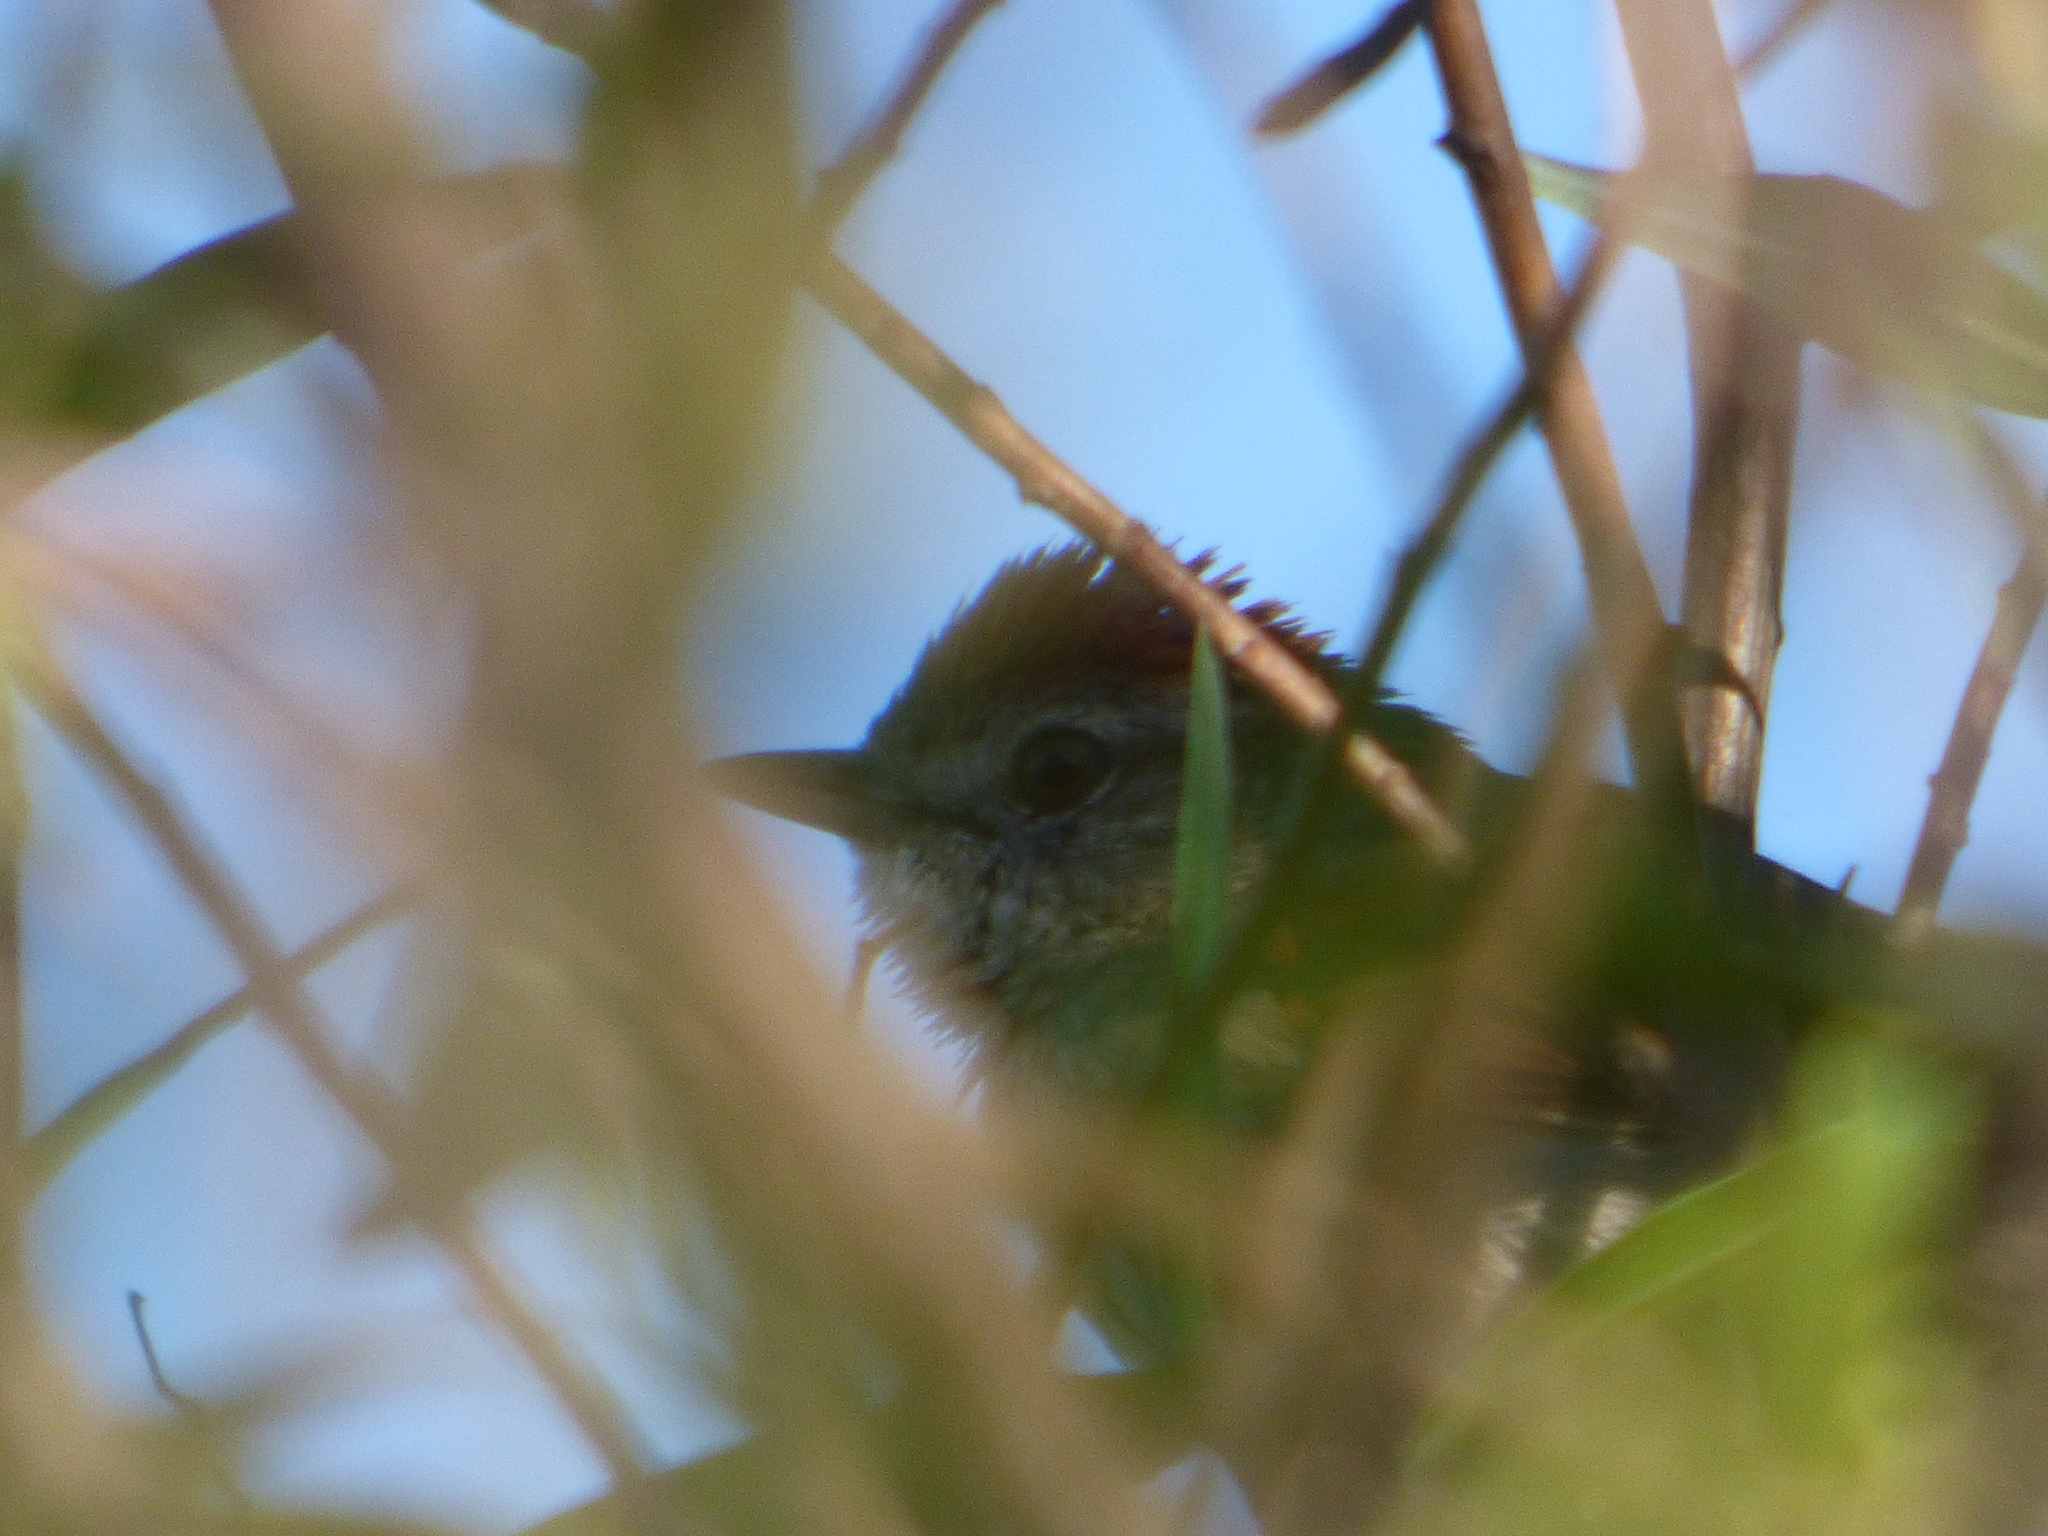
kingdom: Animalia
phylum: Chordata
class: Aves
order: Passeriformes
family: Furnariidae
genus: Synallaxis
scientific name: Synallaxis albescens
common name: Pale-breasted spinetail
